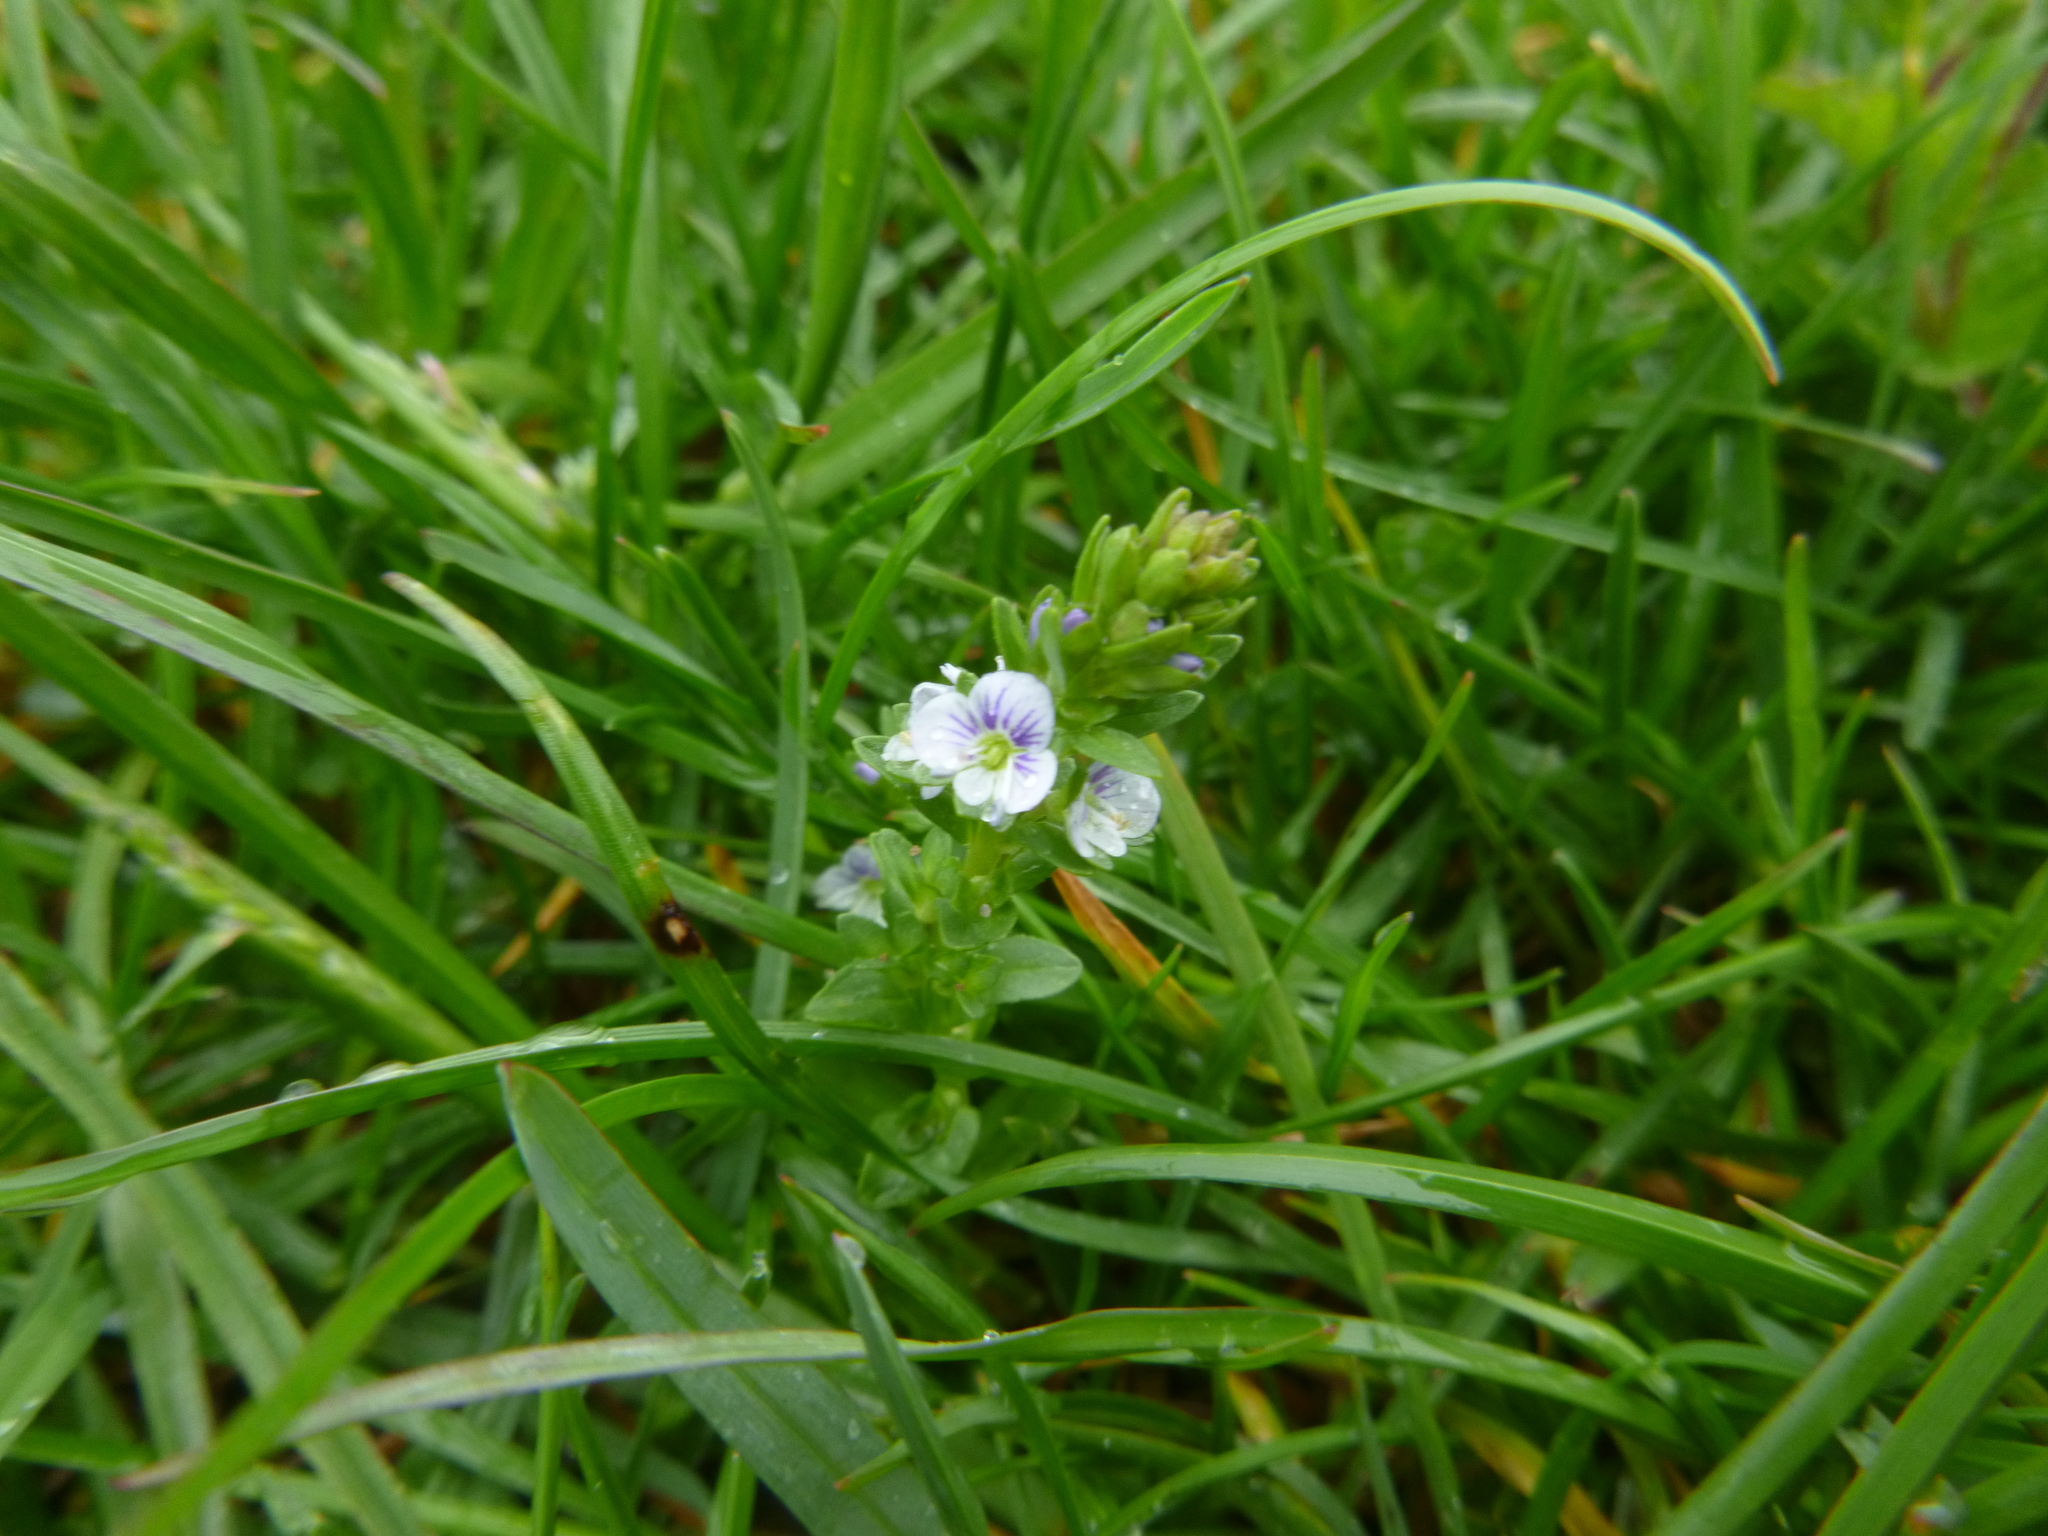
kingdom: Plantae
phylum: Tracheophyta
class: Magnoliopsida
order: Lamiales
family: Plantaginaceae
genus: Veronica
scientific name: Veronica serpyllifolia
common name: Thyme-leaved speedwell
